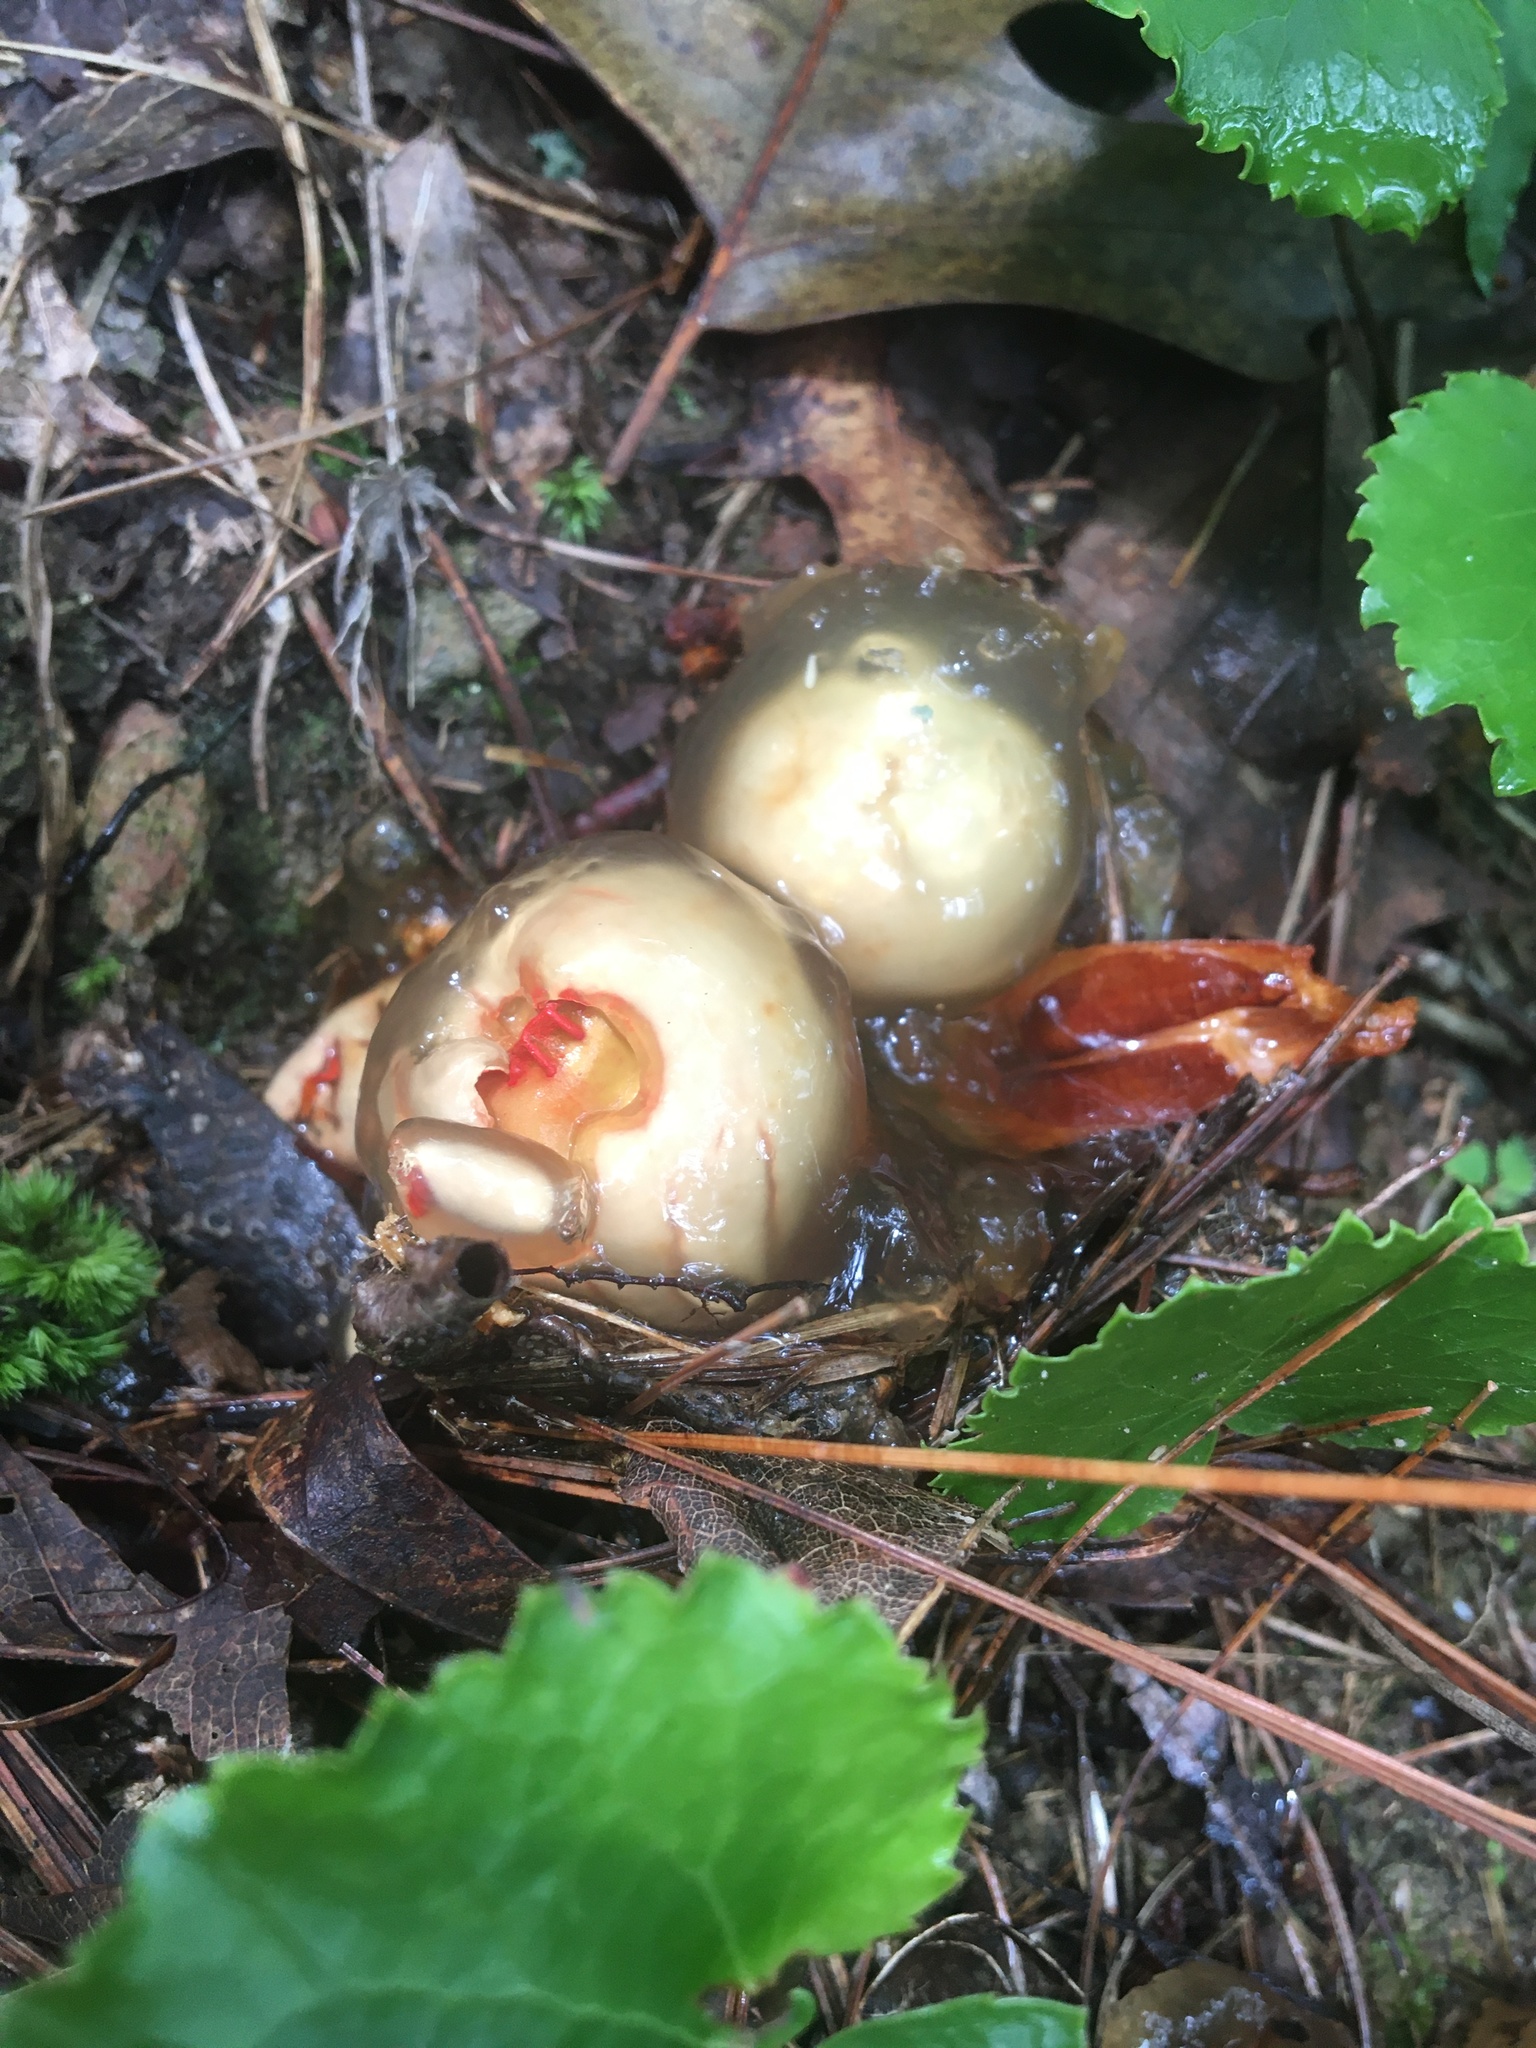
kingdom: Fungi
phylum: Basidiomycota
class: Agaricomycetes
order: Boletales
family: Calostomataceae
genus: Calostoma
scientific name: Calostoma cinnabarinum
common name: Stalked puffball-in-aspic
